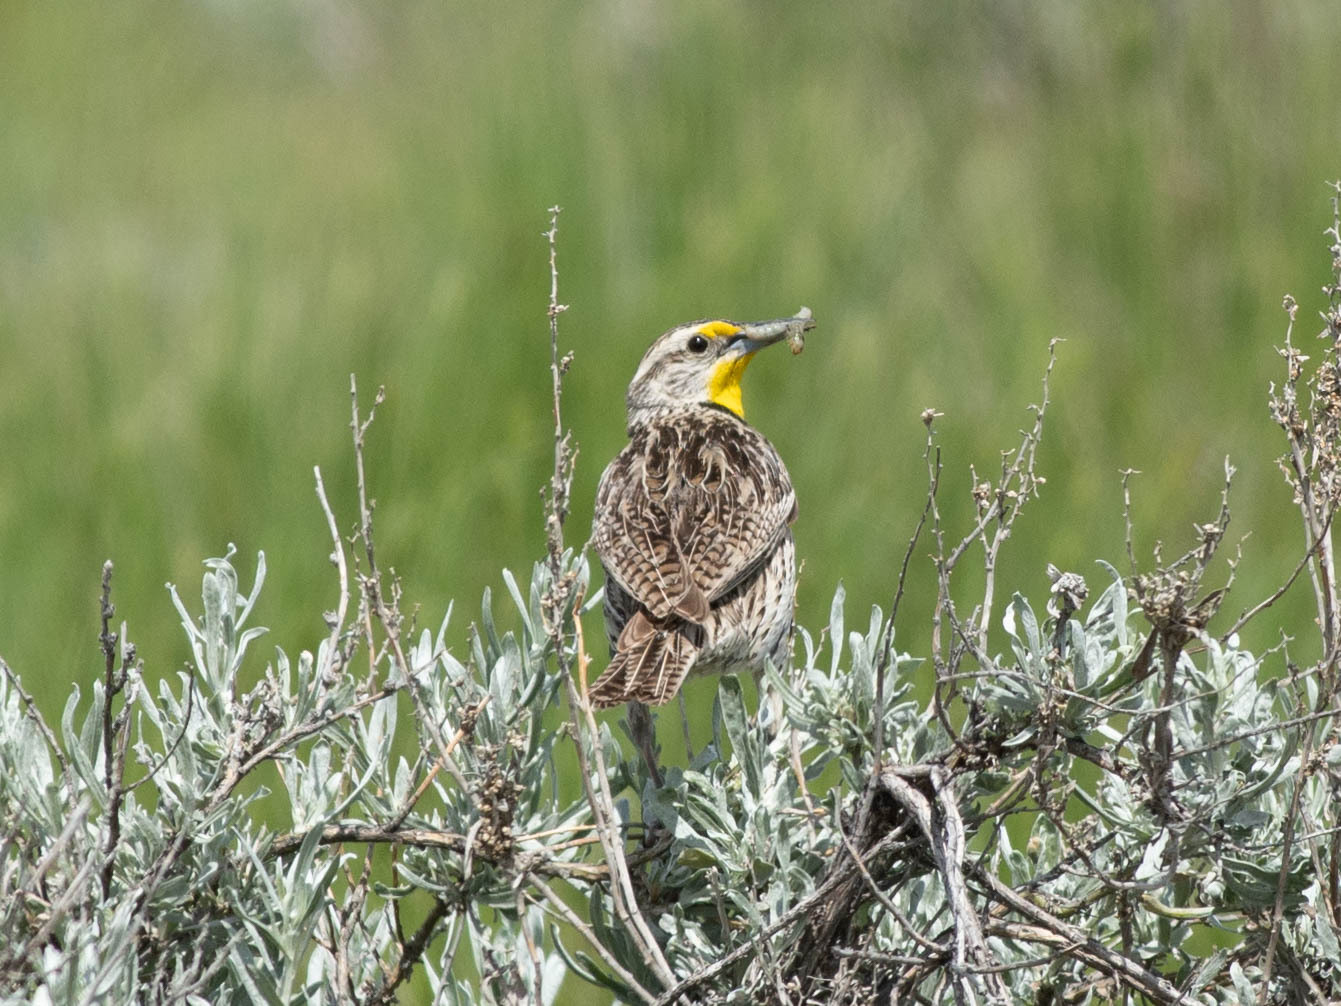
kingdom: Animalia
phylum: Chordata
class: Aves
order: Passeriformes
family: Icteridae
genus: Sturnella
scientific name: Sturnella neglecta
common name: Western meadowlark
